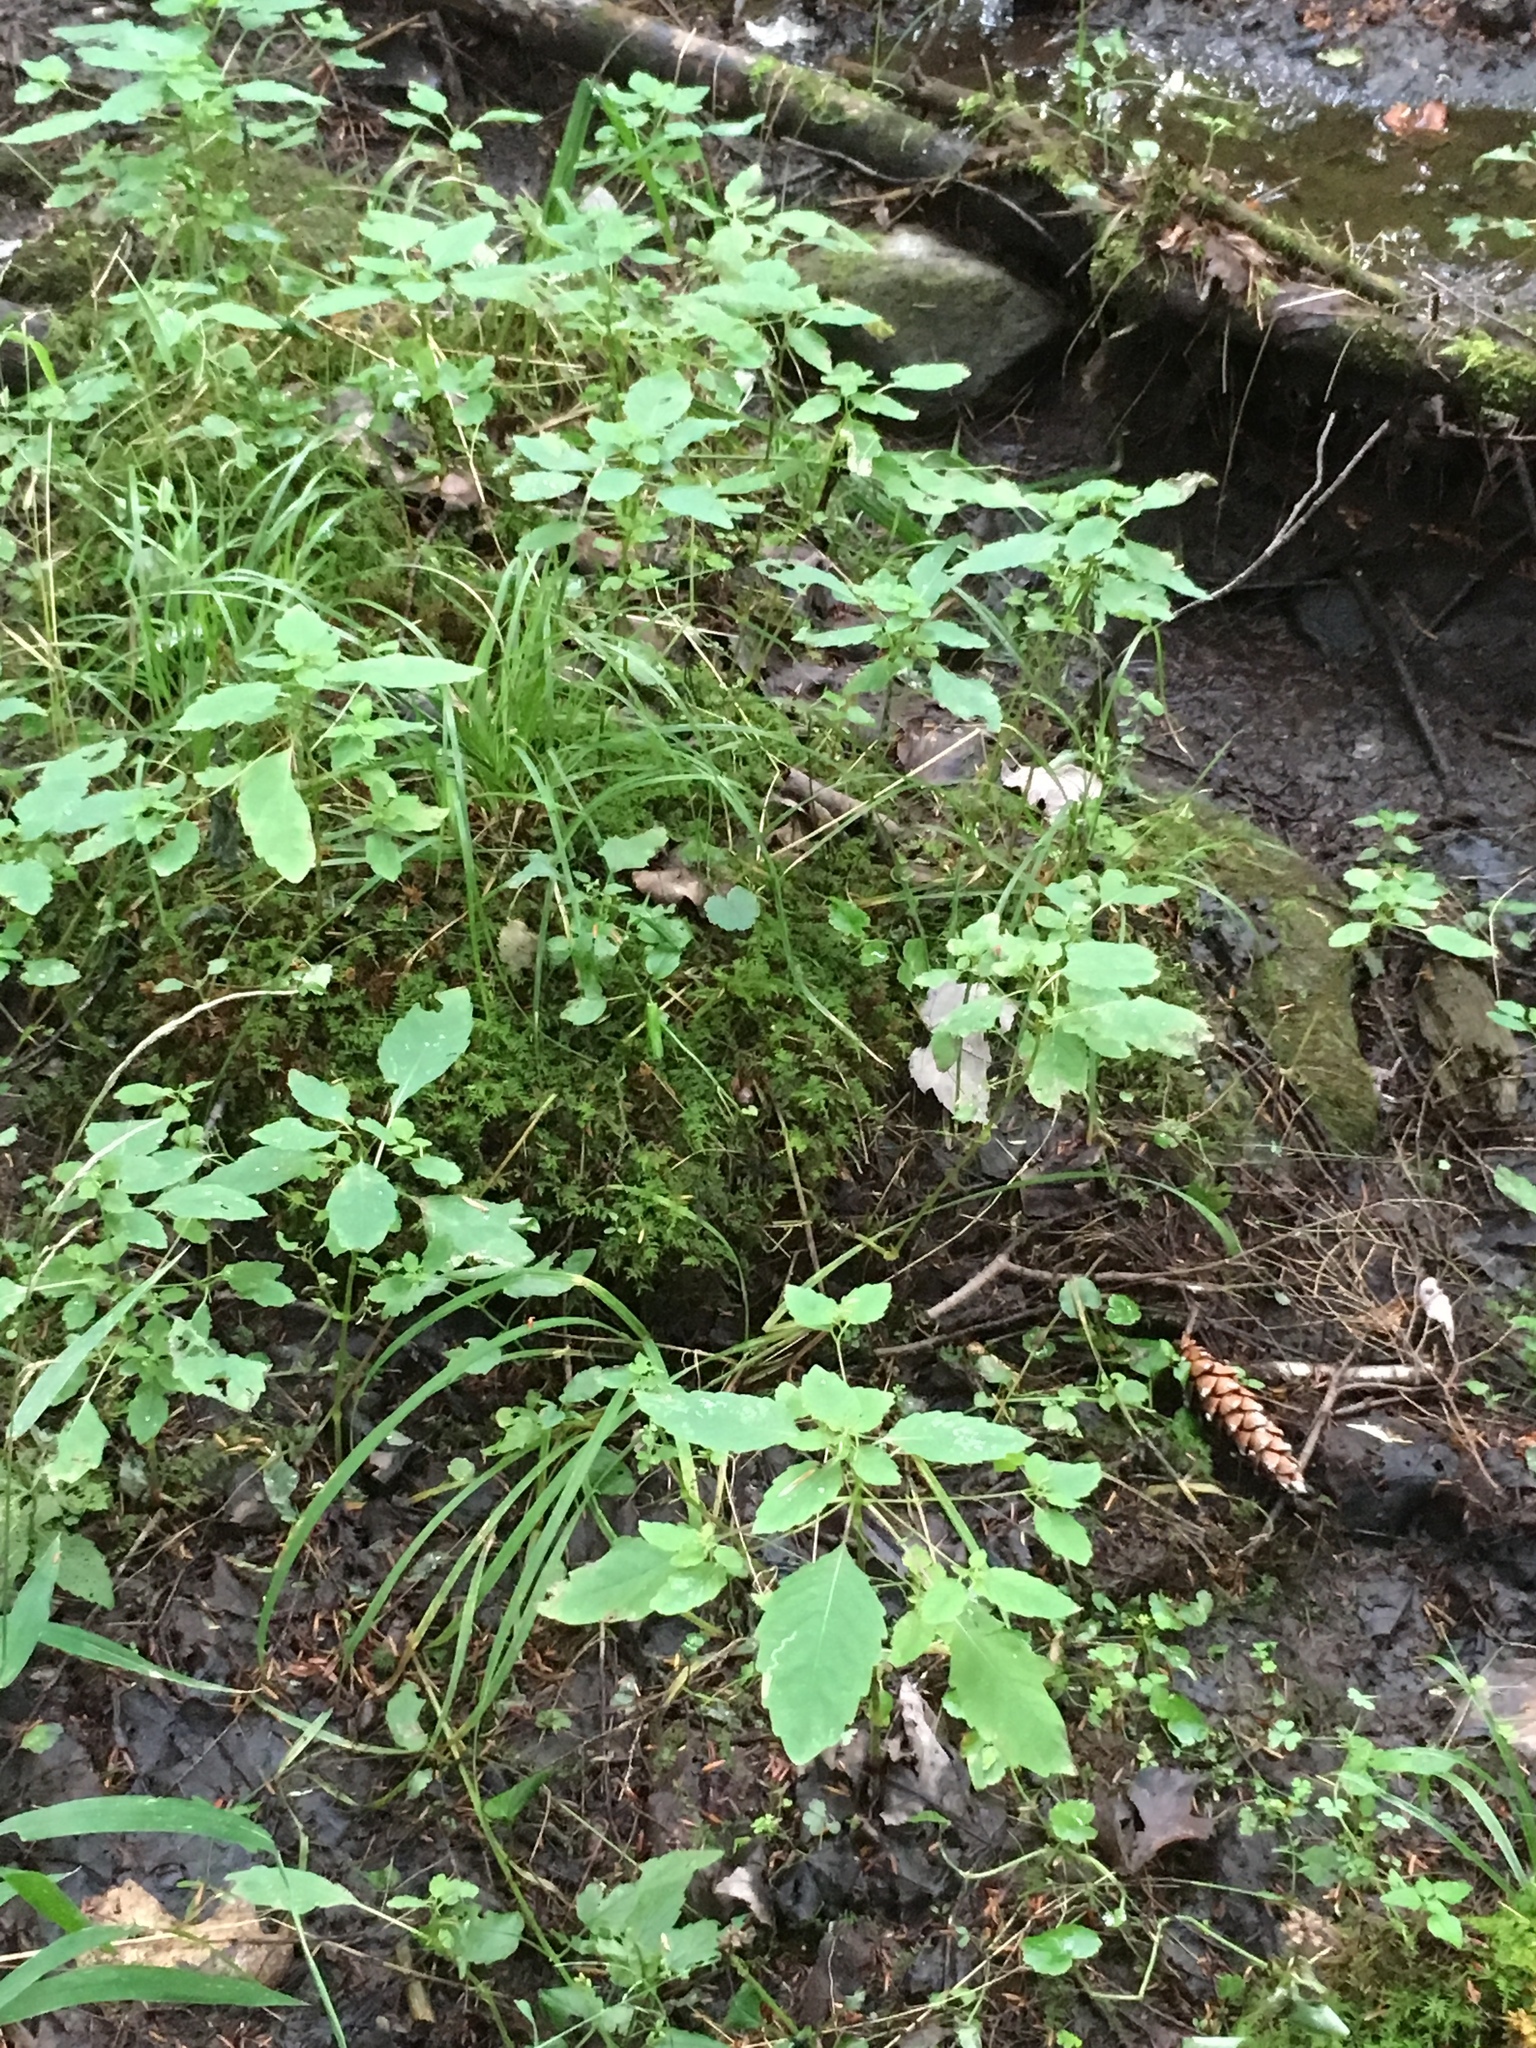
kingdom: Plantae
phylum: Tracheophyta
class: Magnoliopsida
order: Ericales
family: Balsaminaceae
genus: Impatiens
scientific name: Impatiens capensis
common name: Orange balsam
